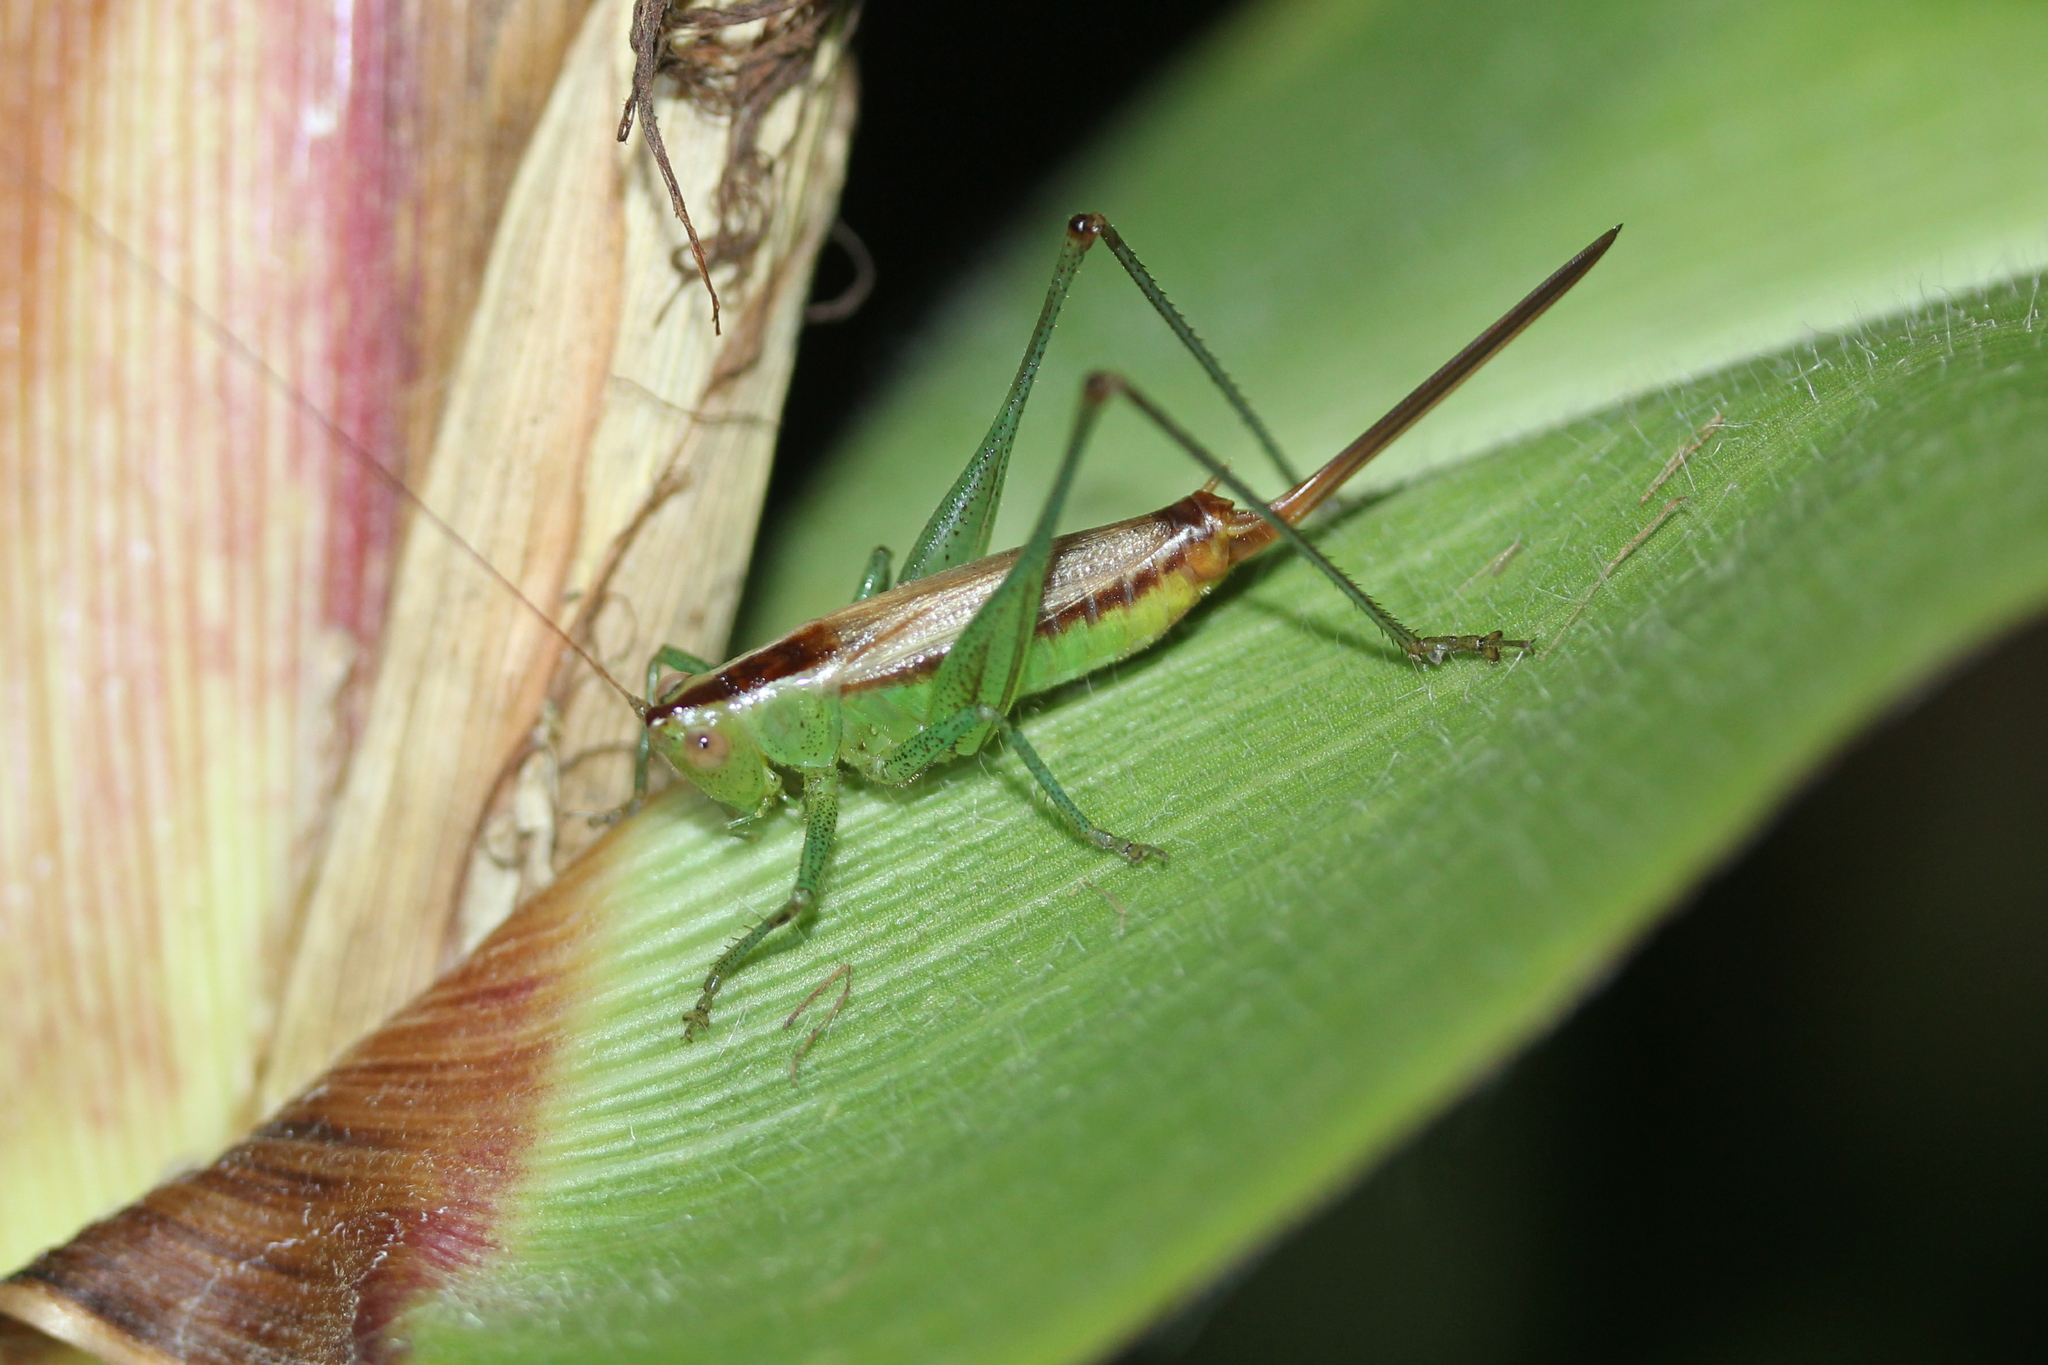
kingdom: Animalia
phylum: Arthropoda
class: Insecta
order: Orthoptera
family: Tettigoniidae
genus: Conocephalus
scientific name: Conocephalus brevipennis
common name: Short-winged meadow katydid
